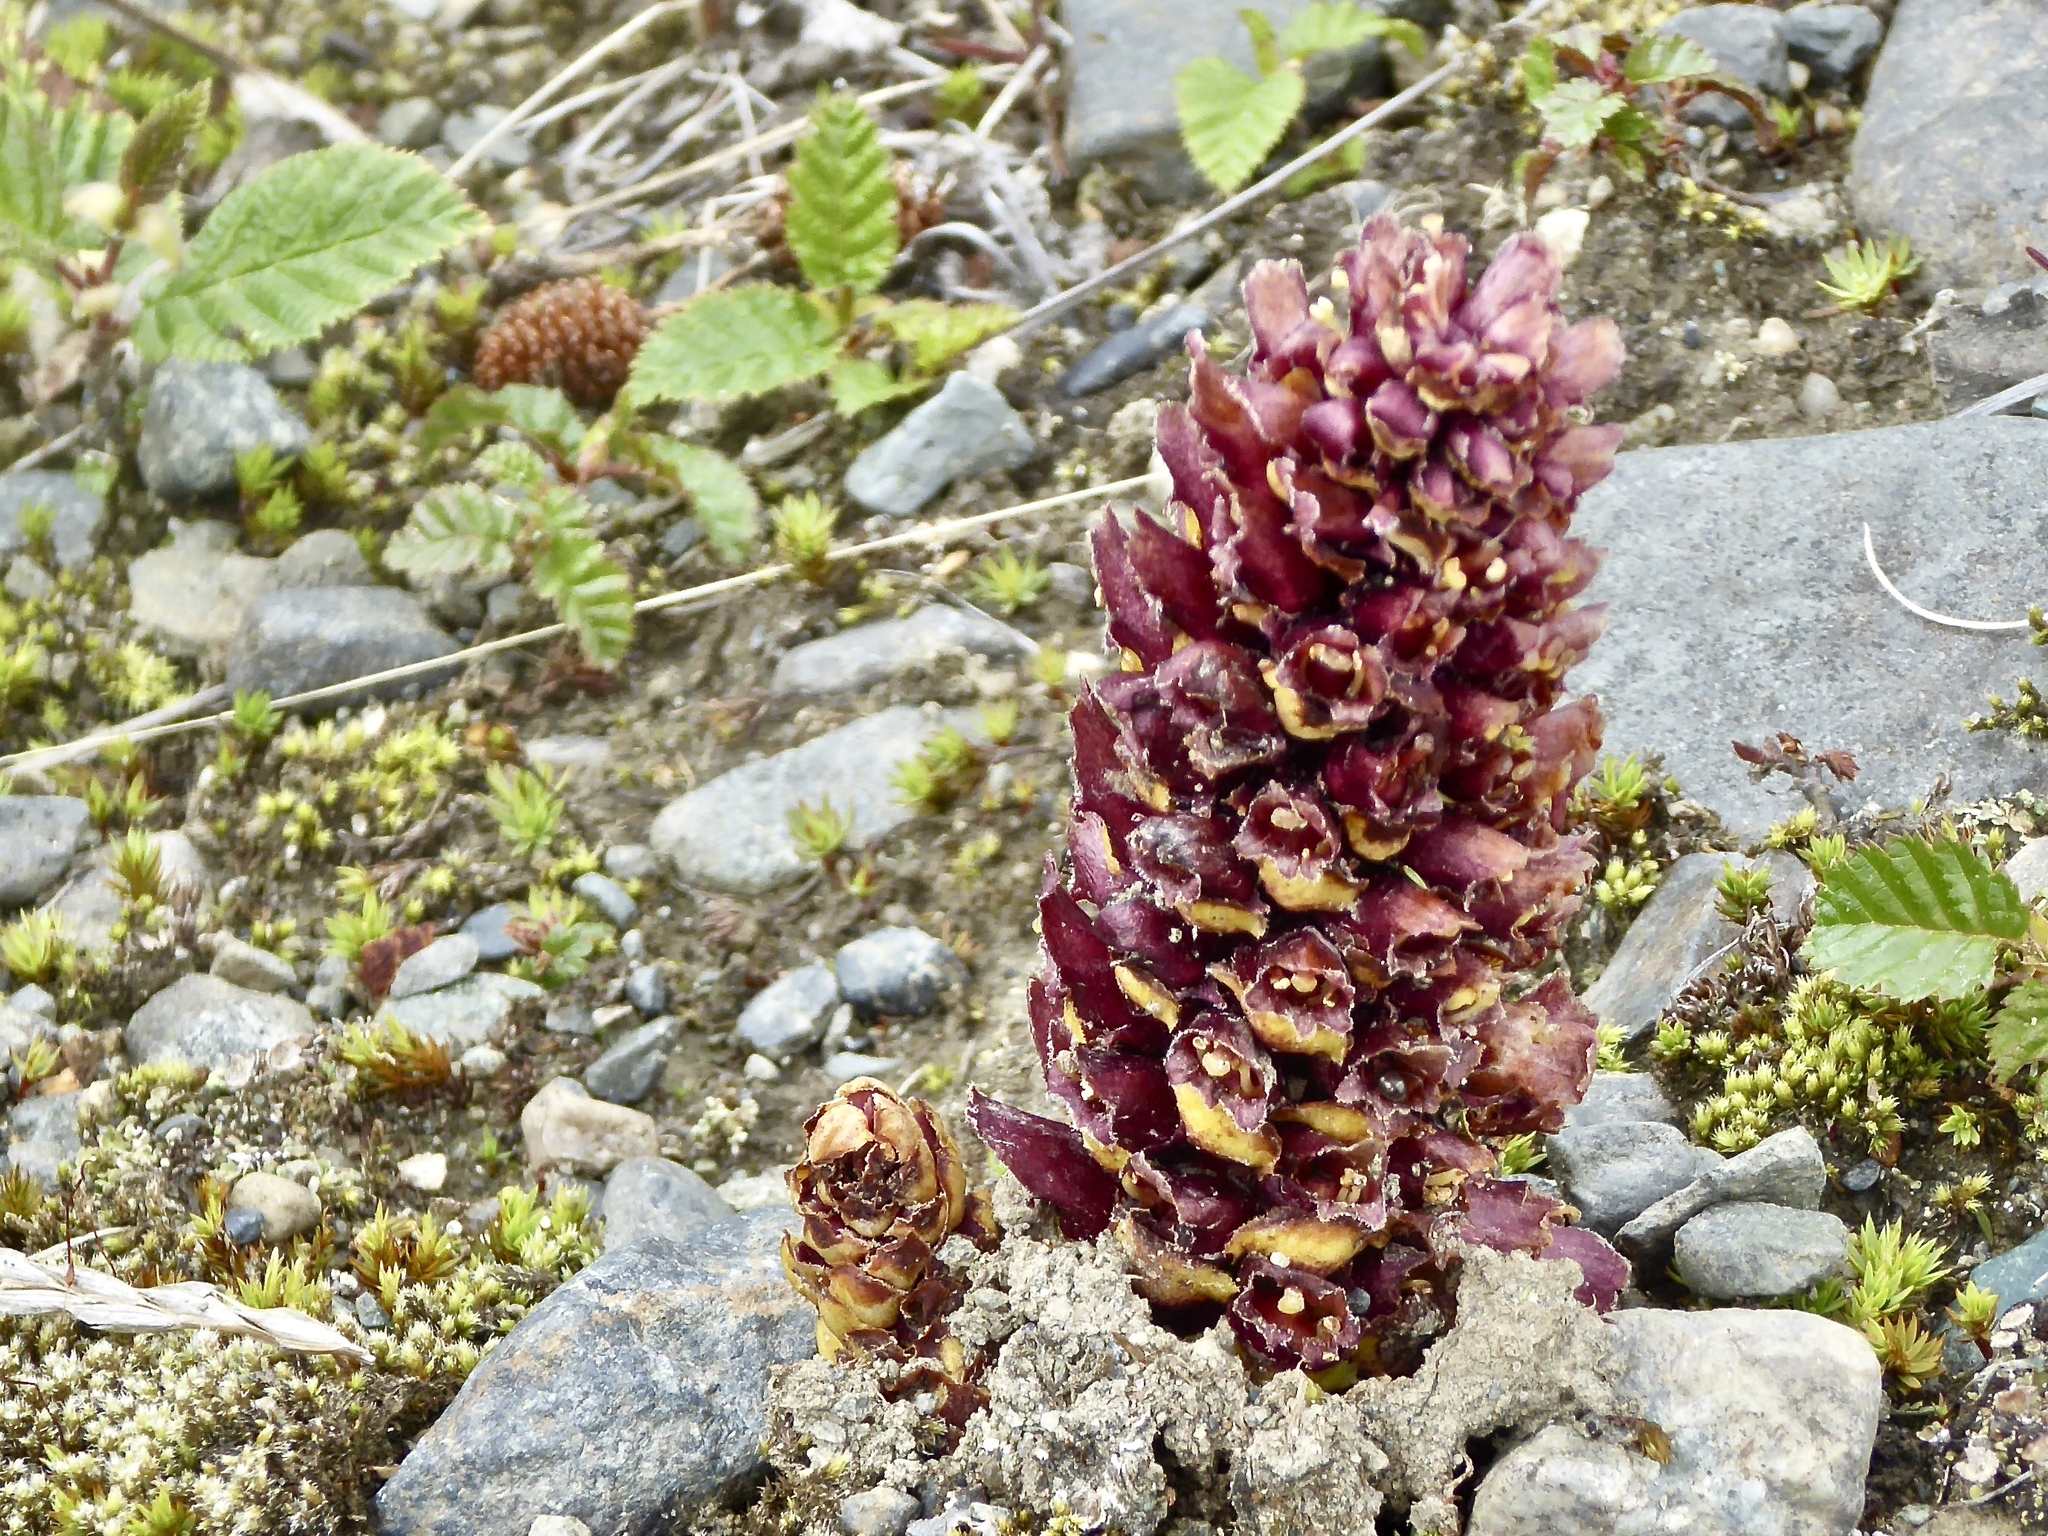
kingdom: Plantae
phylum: Tracheophyta
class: Magnoliopsida
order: Lamiales
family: Orobanchaceae
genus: Boschniakia
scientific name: Boschniakia rossica
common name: Poque
